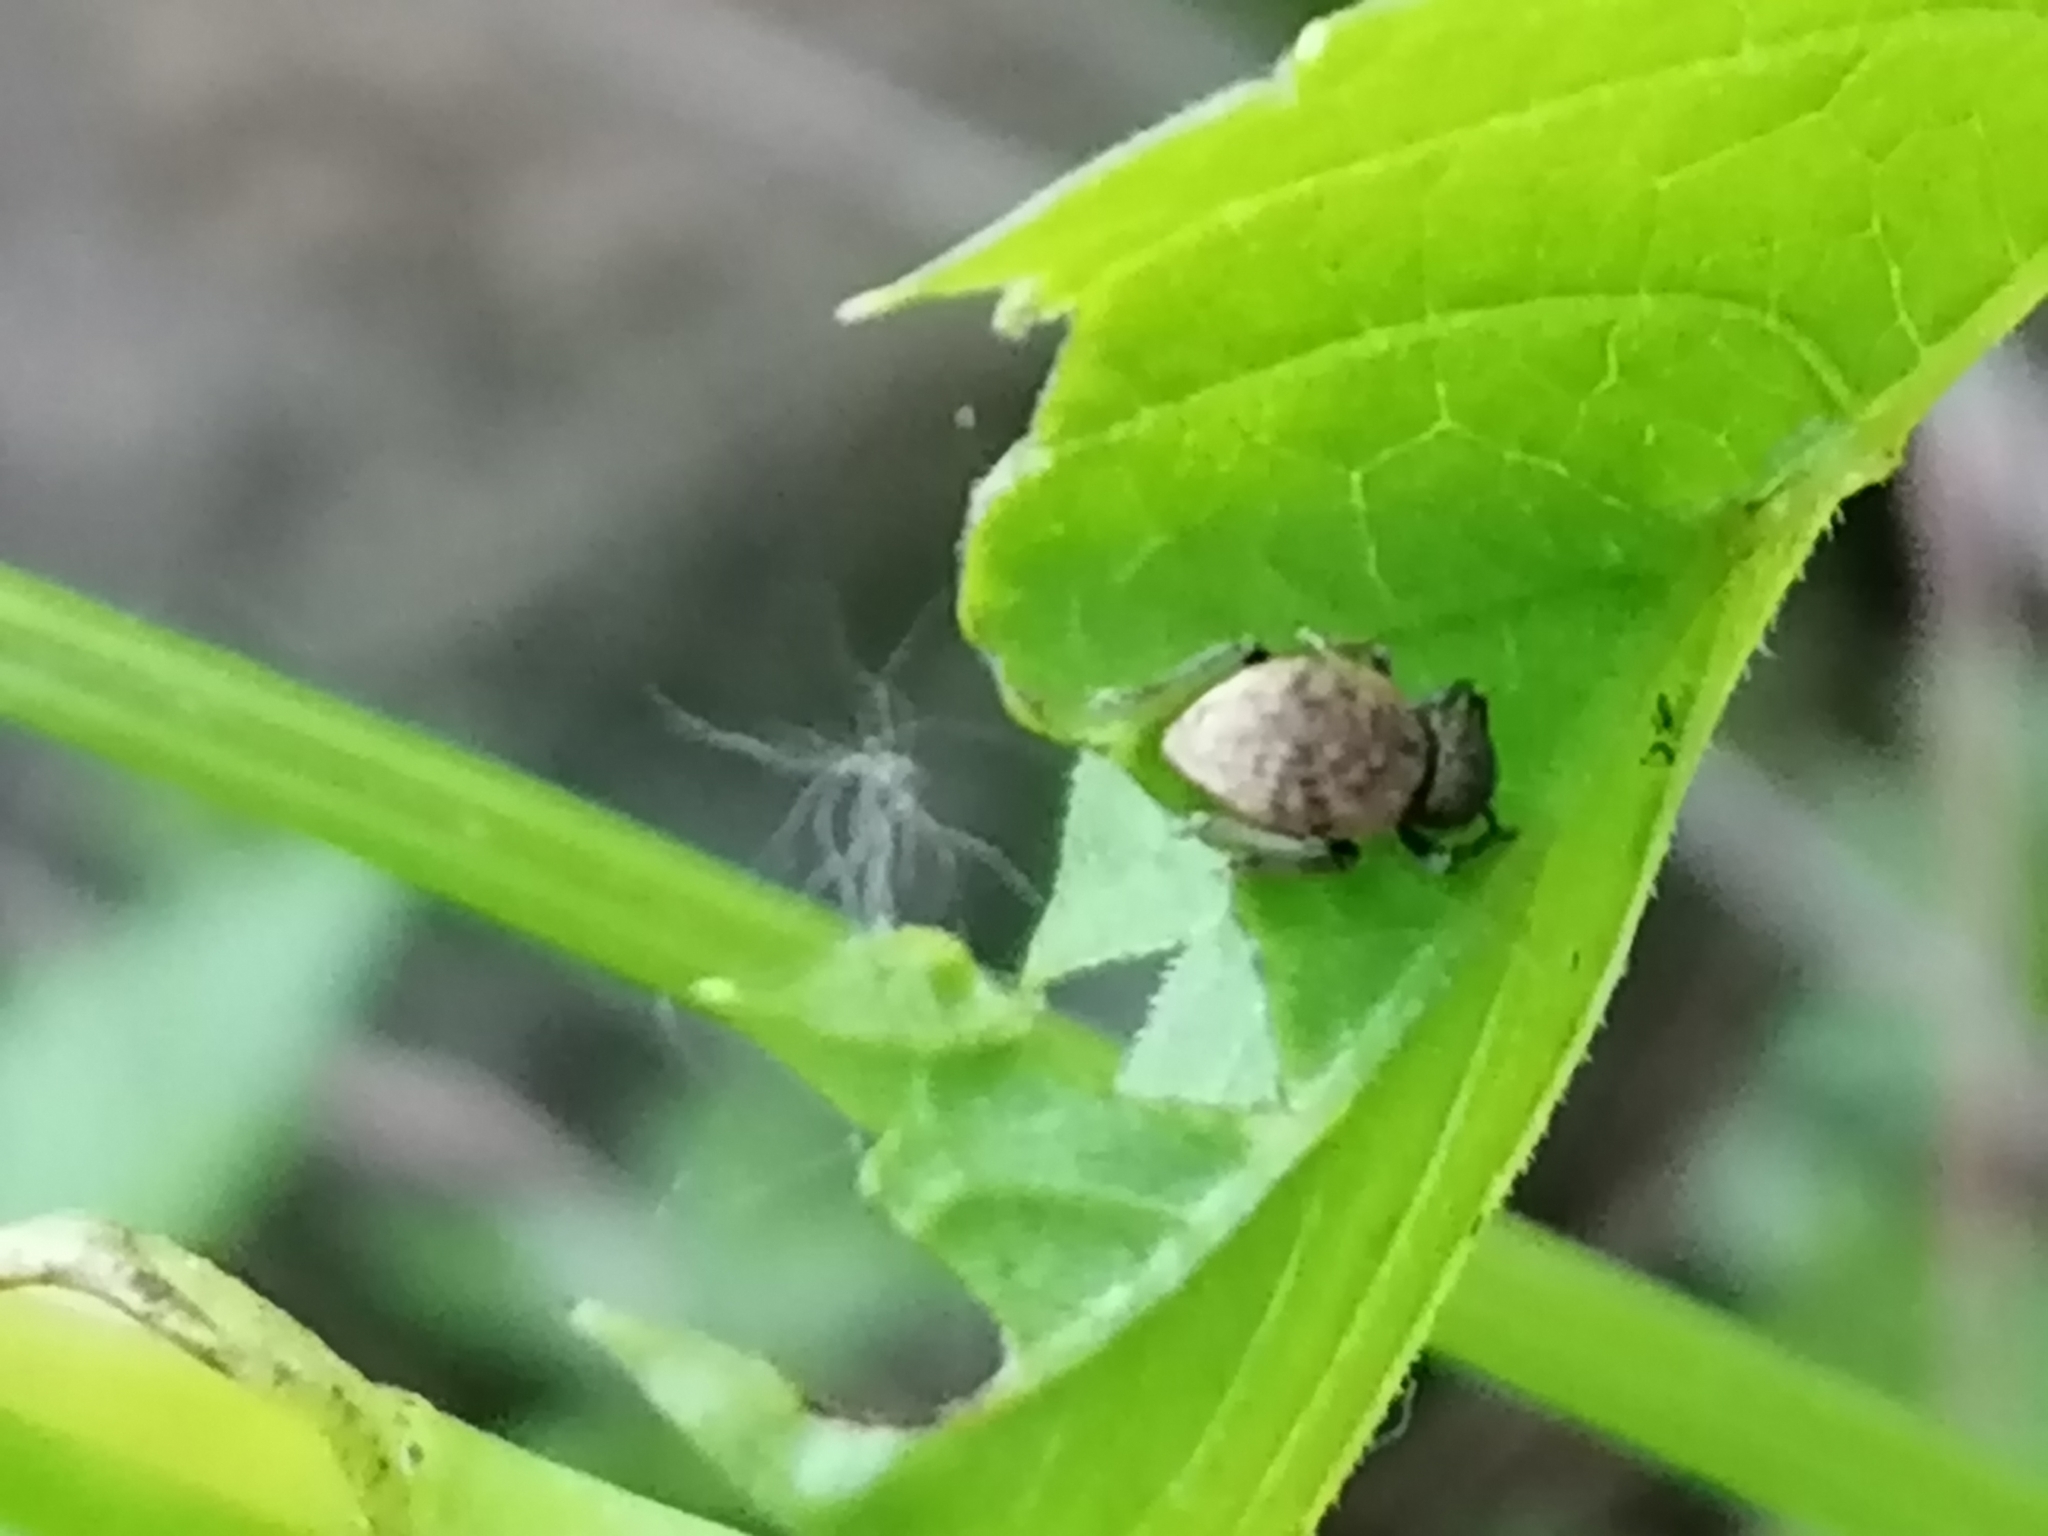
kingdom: Animalia
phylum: Arthropoda
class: Insecta
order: Coleoptera
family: Curculionidae
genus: Otiorhynchus
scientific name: Otiorhynchus raucus
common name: Weevil
